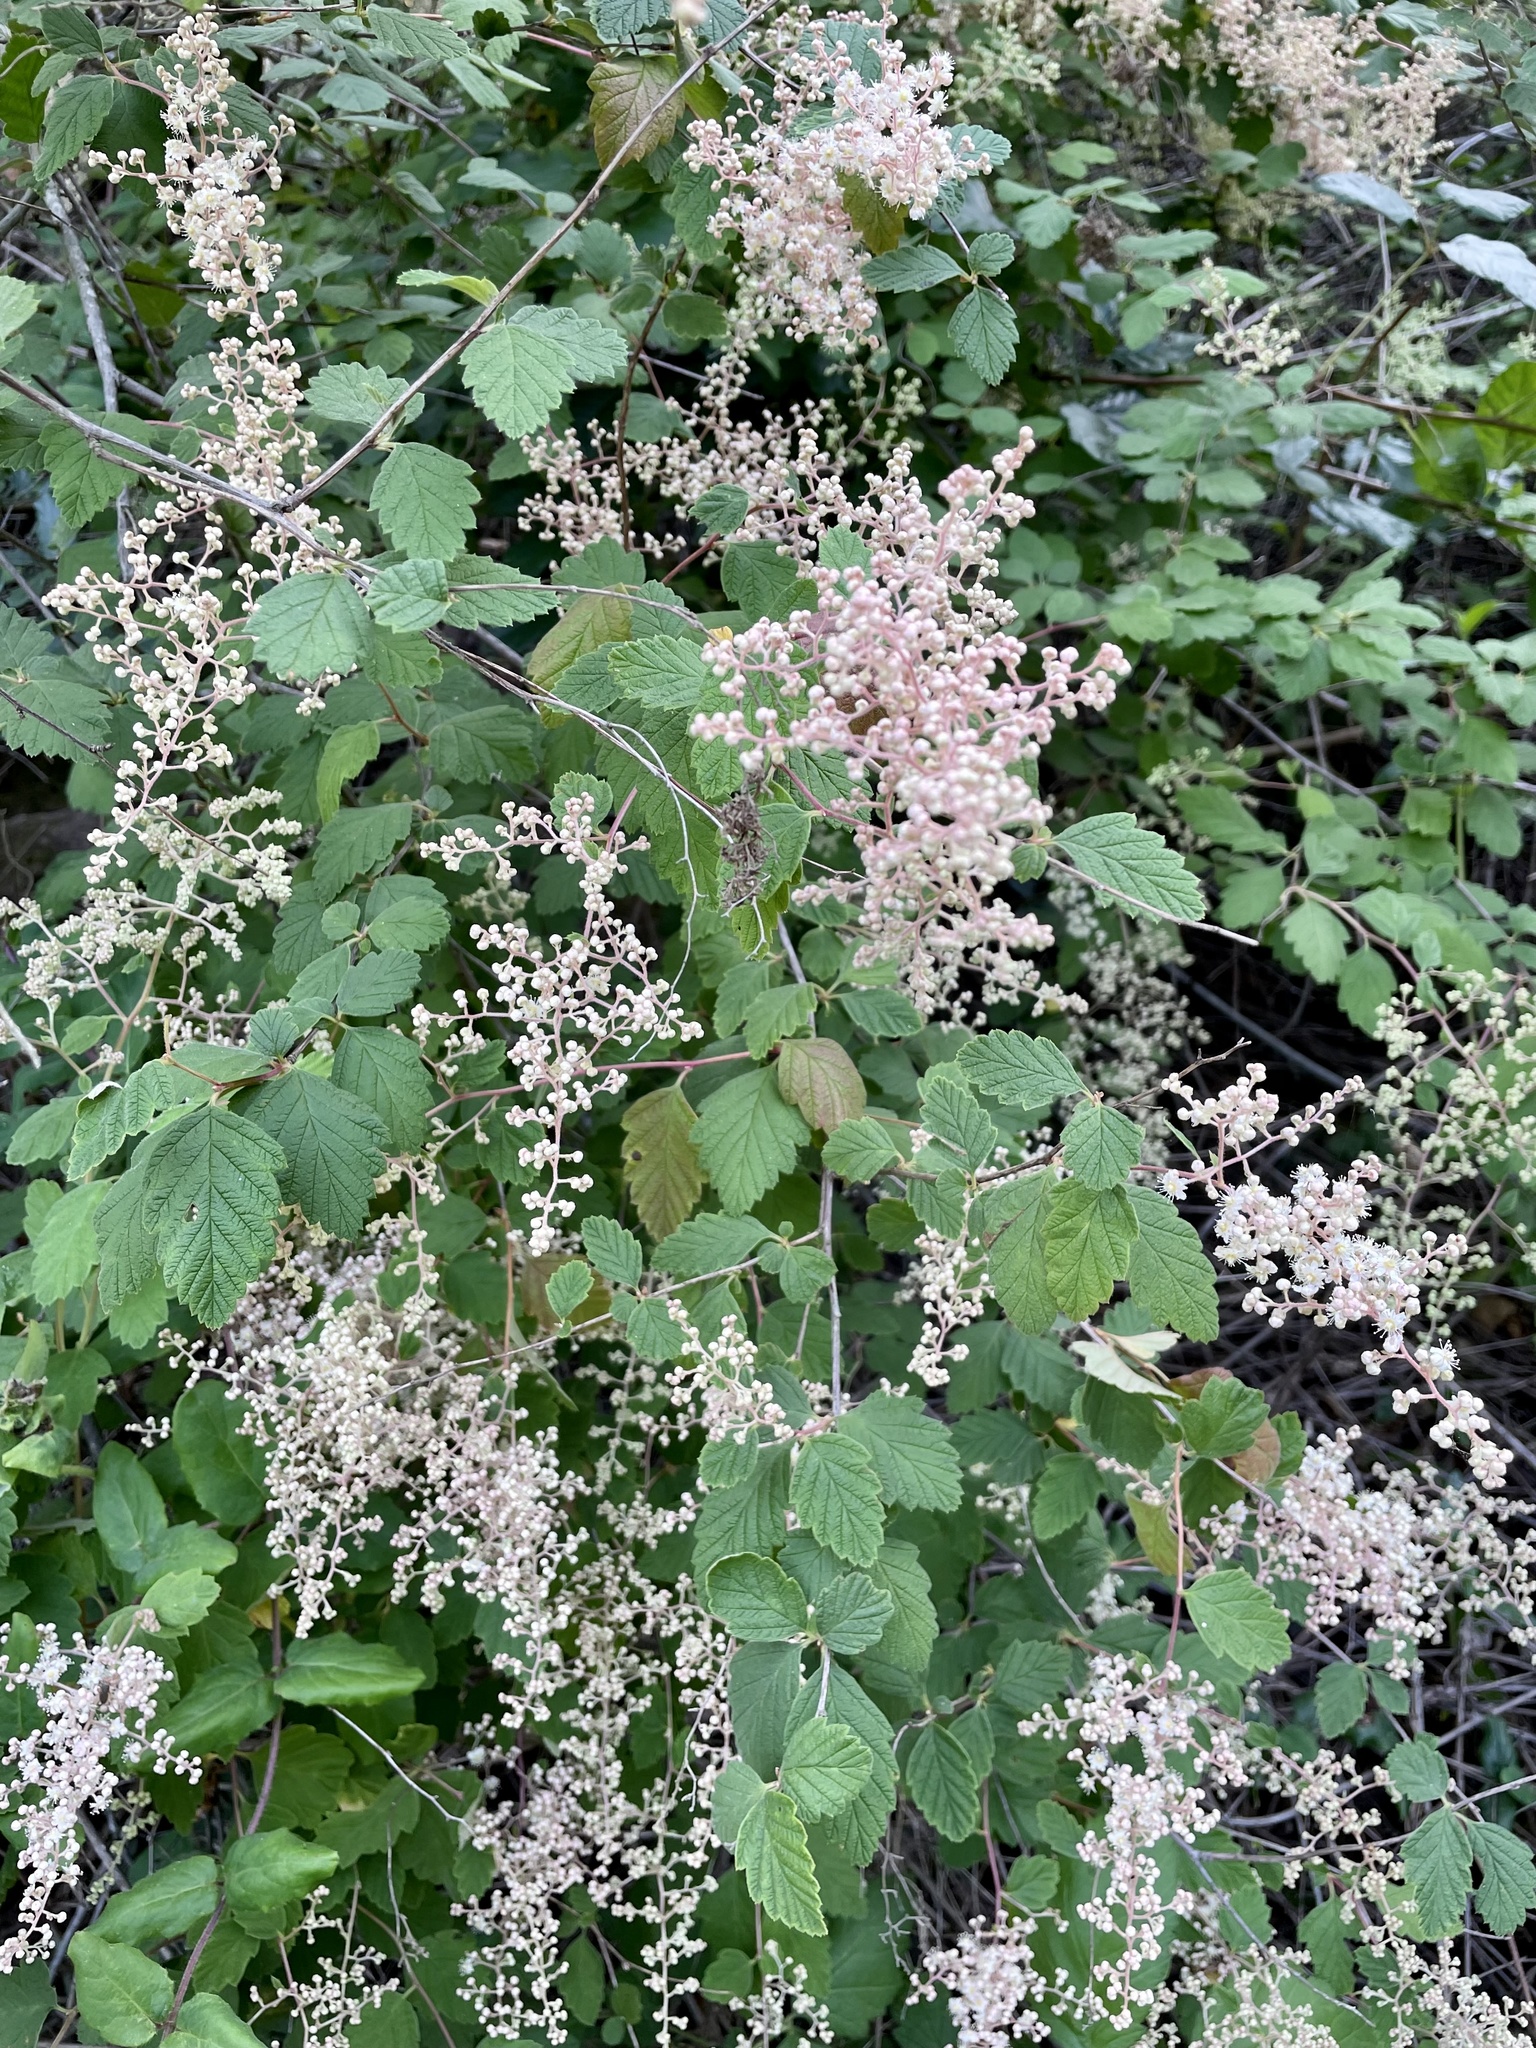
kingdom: Plantae
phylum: Tracheophyta
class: Magnoliopsida
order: Rosales
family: Rosaceae
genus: Holodiscus
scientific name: Holodiscus discolor
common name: Oceanspray
